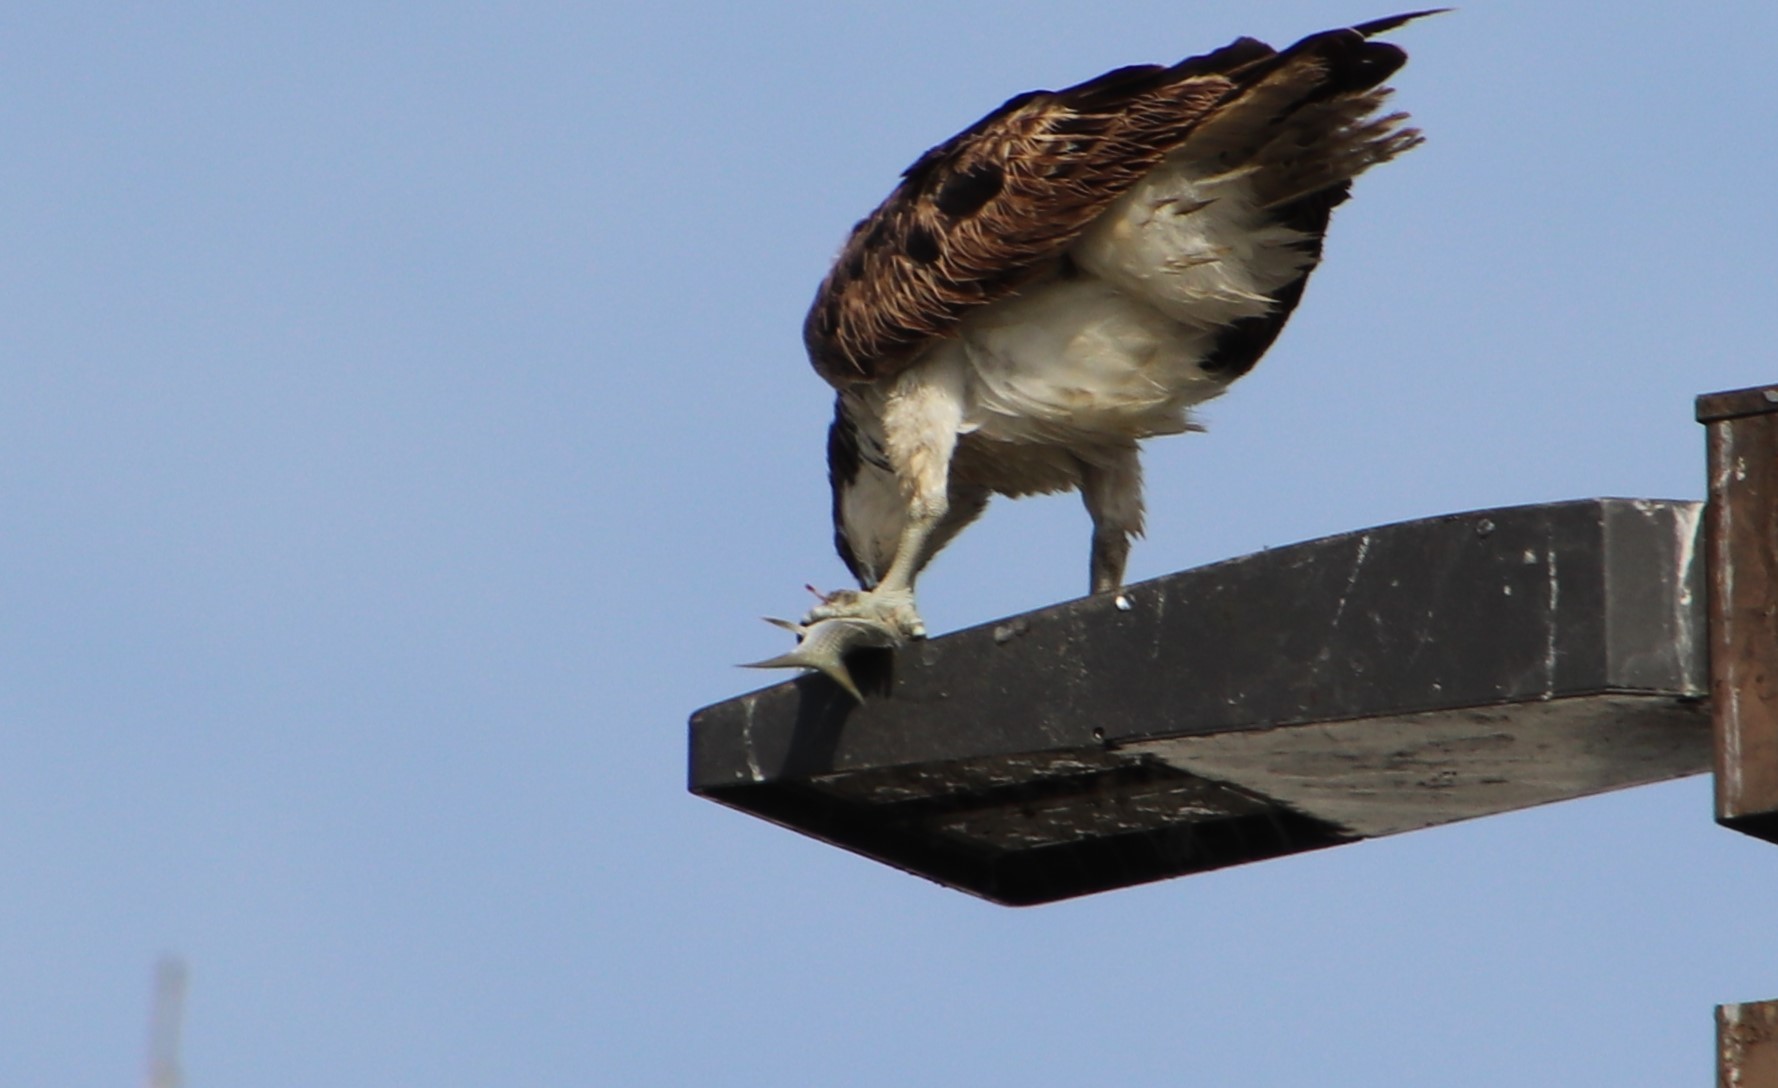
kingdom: Animalia
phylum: Chordata
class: Aves
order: Accipitriformes
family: Pandionidae
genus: Pandion
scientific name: Pandion haliaetus
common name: Osprey
